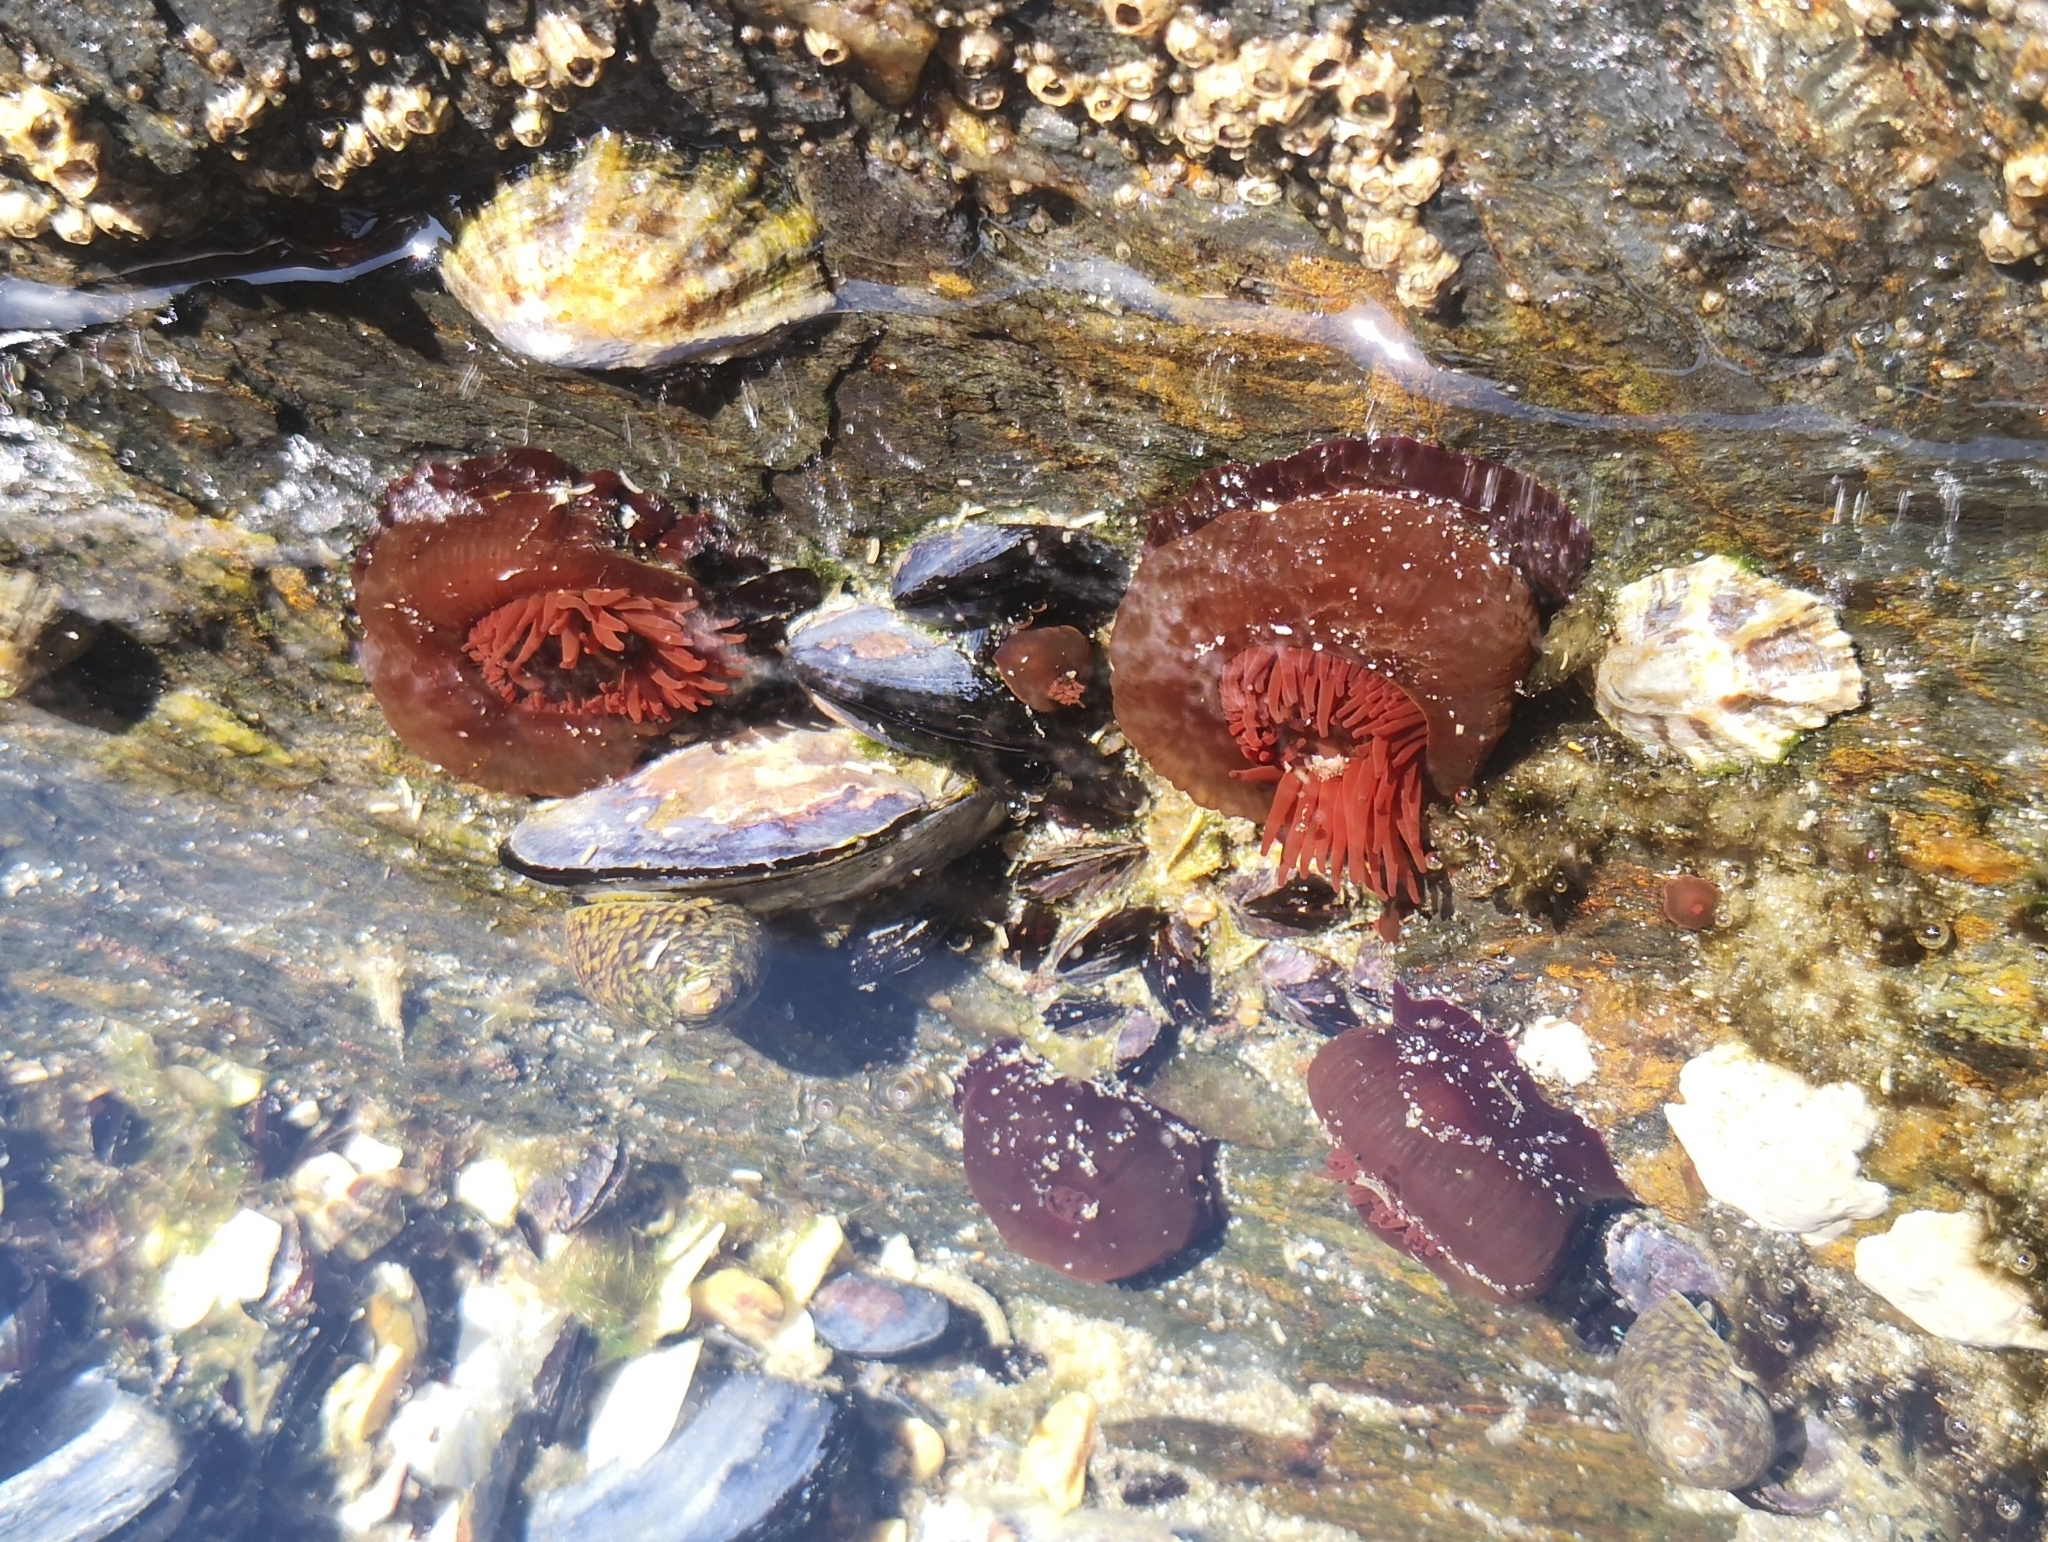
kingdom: Animalia
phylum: Cnidaria
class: Anthozoa
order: Actiniaria
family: Actiniidae
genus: Actinia
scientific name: Actinia equina
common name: Beadlet anemone
